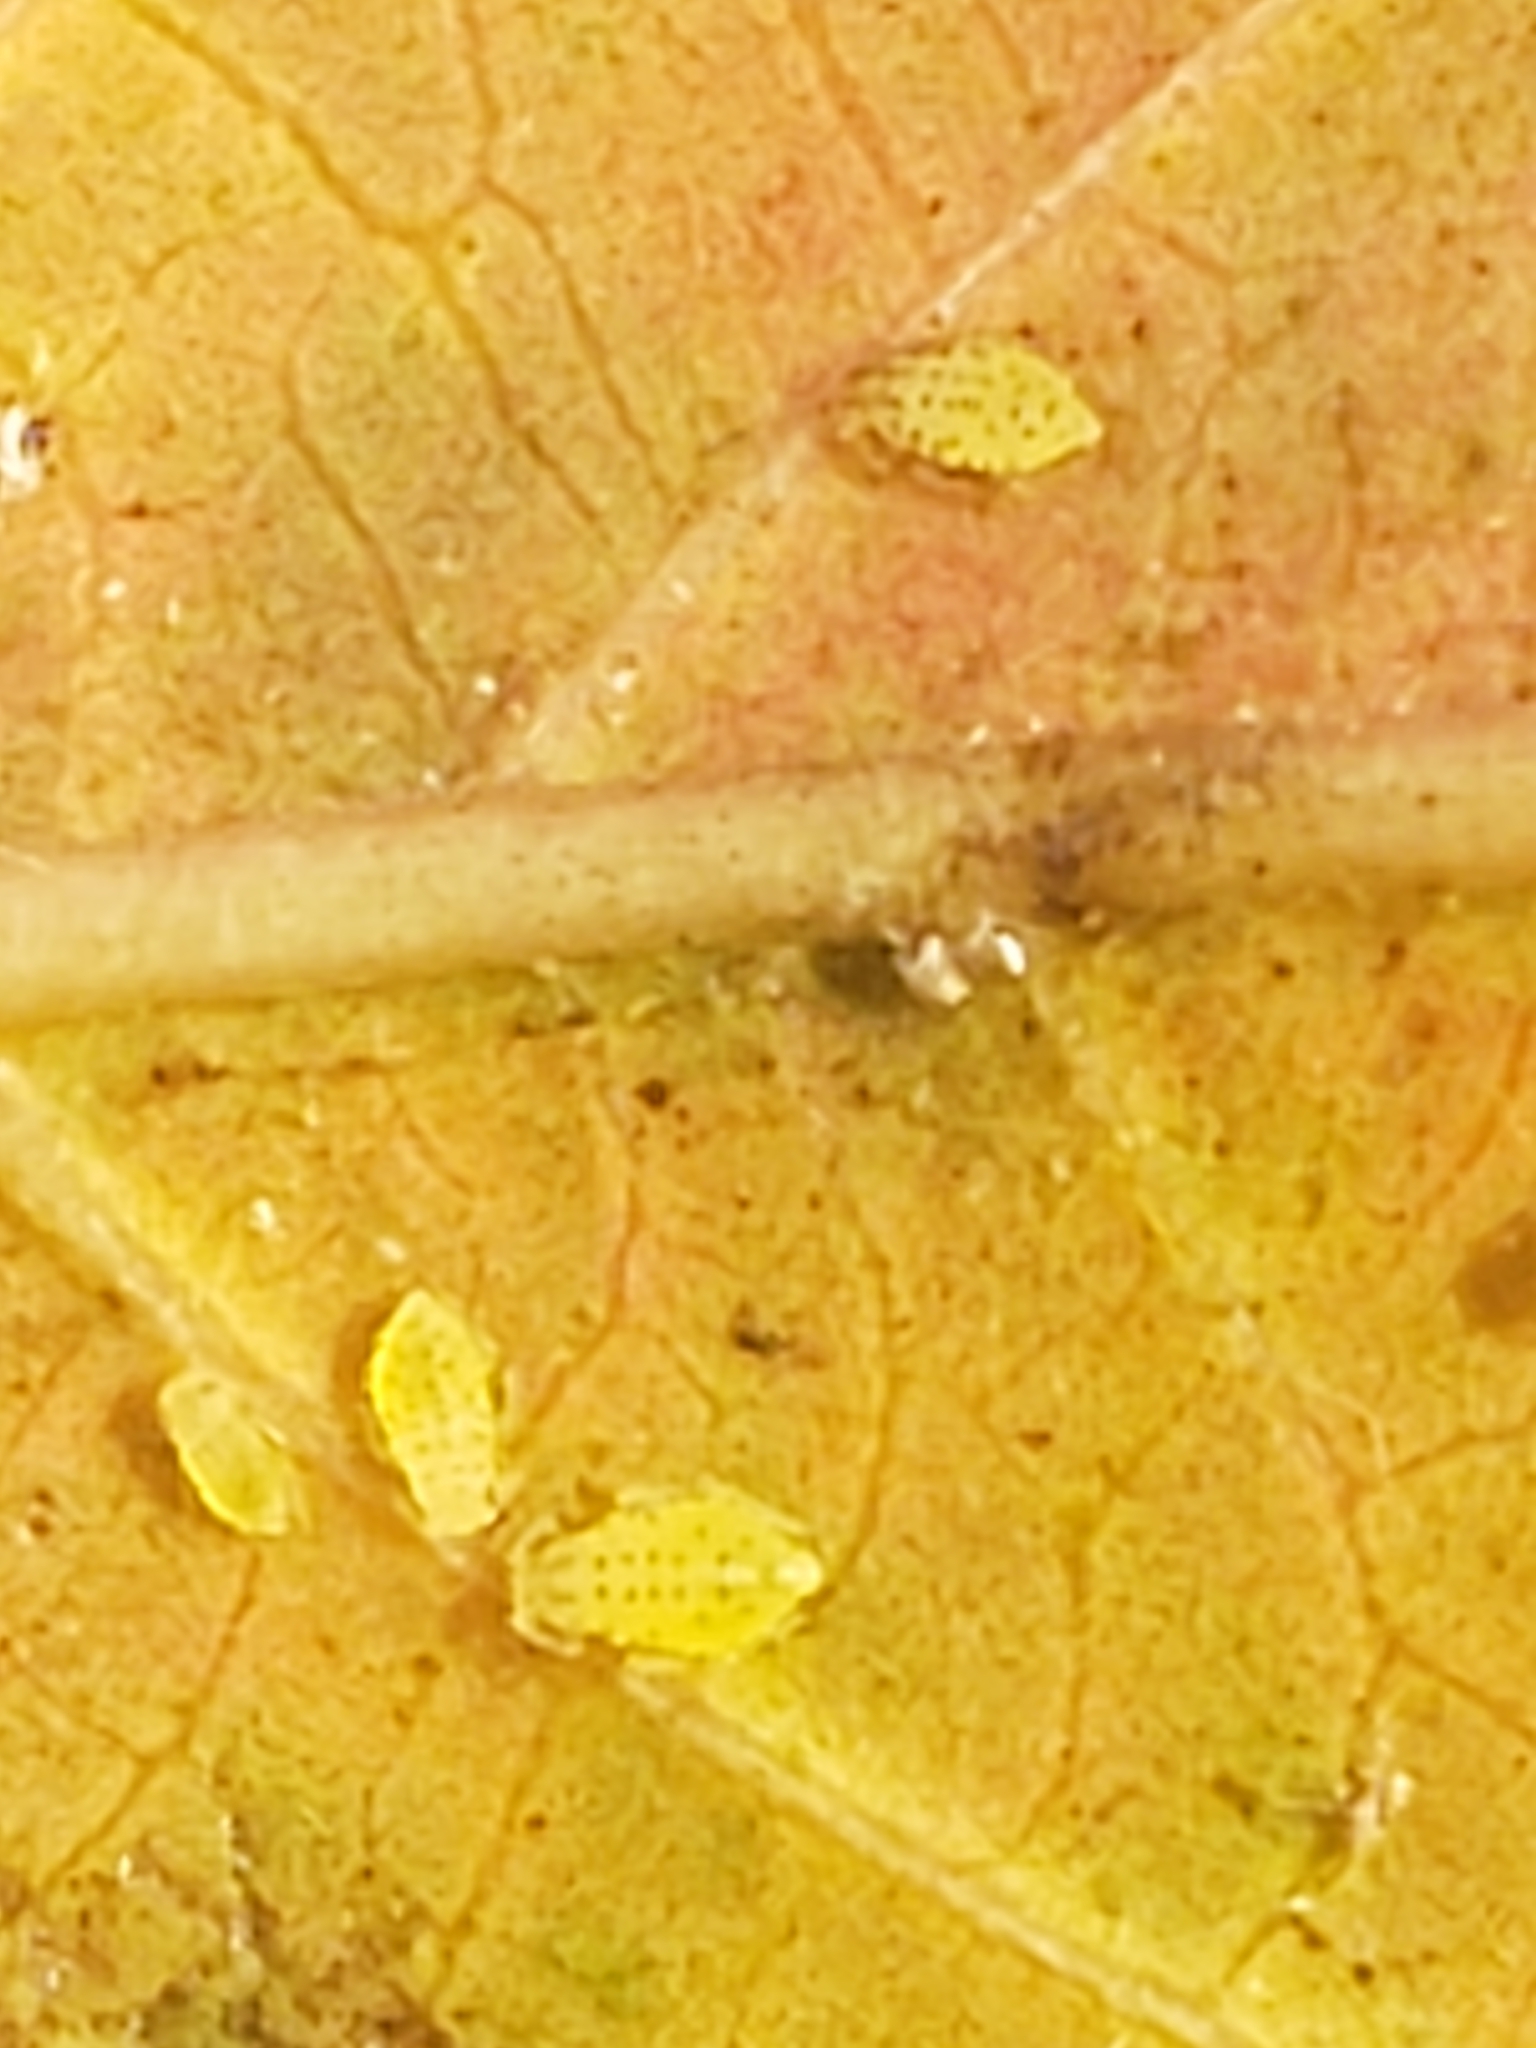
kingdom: Animalia
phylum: Arthropoda
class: Insecta
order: Hemiptera
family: Aphididae
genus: Sarucallis
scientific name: Sarucallis kahawaluokalani
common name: Crapemyrtle aphid
